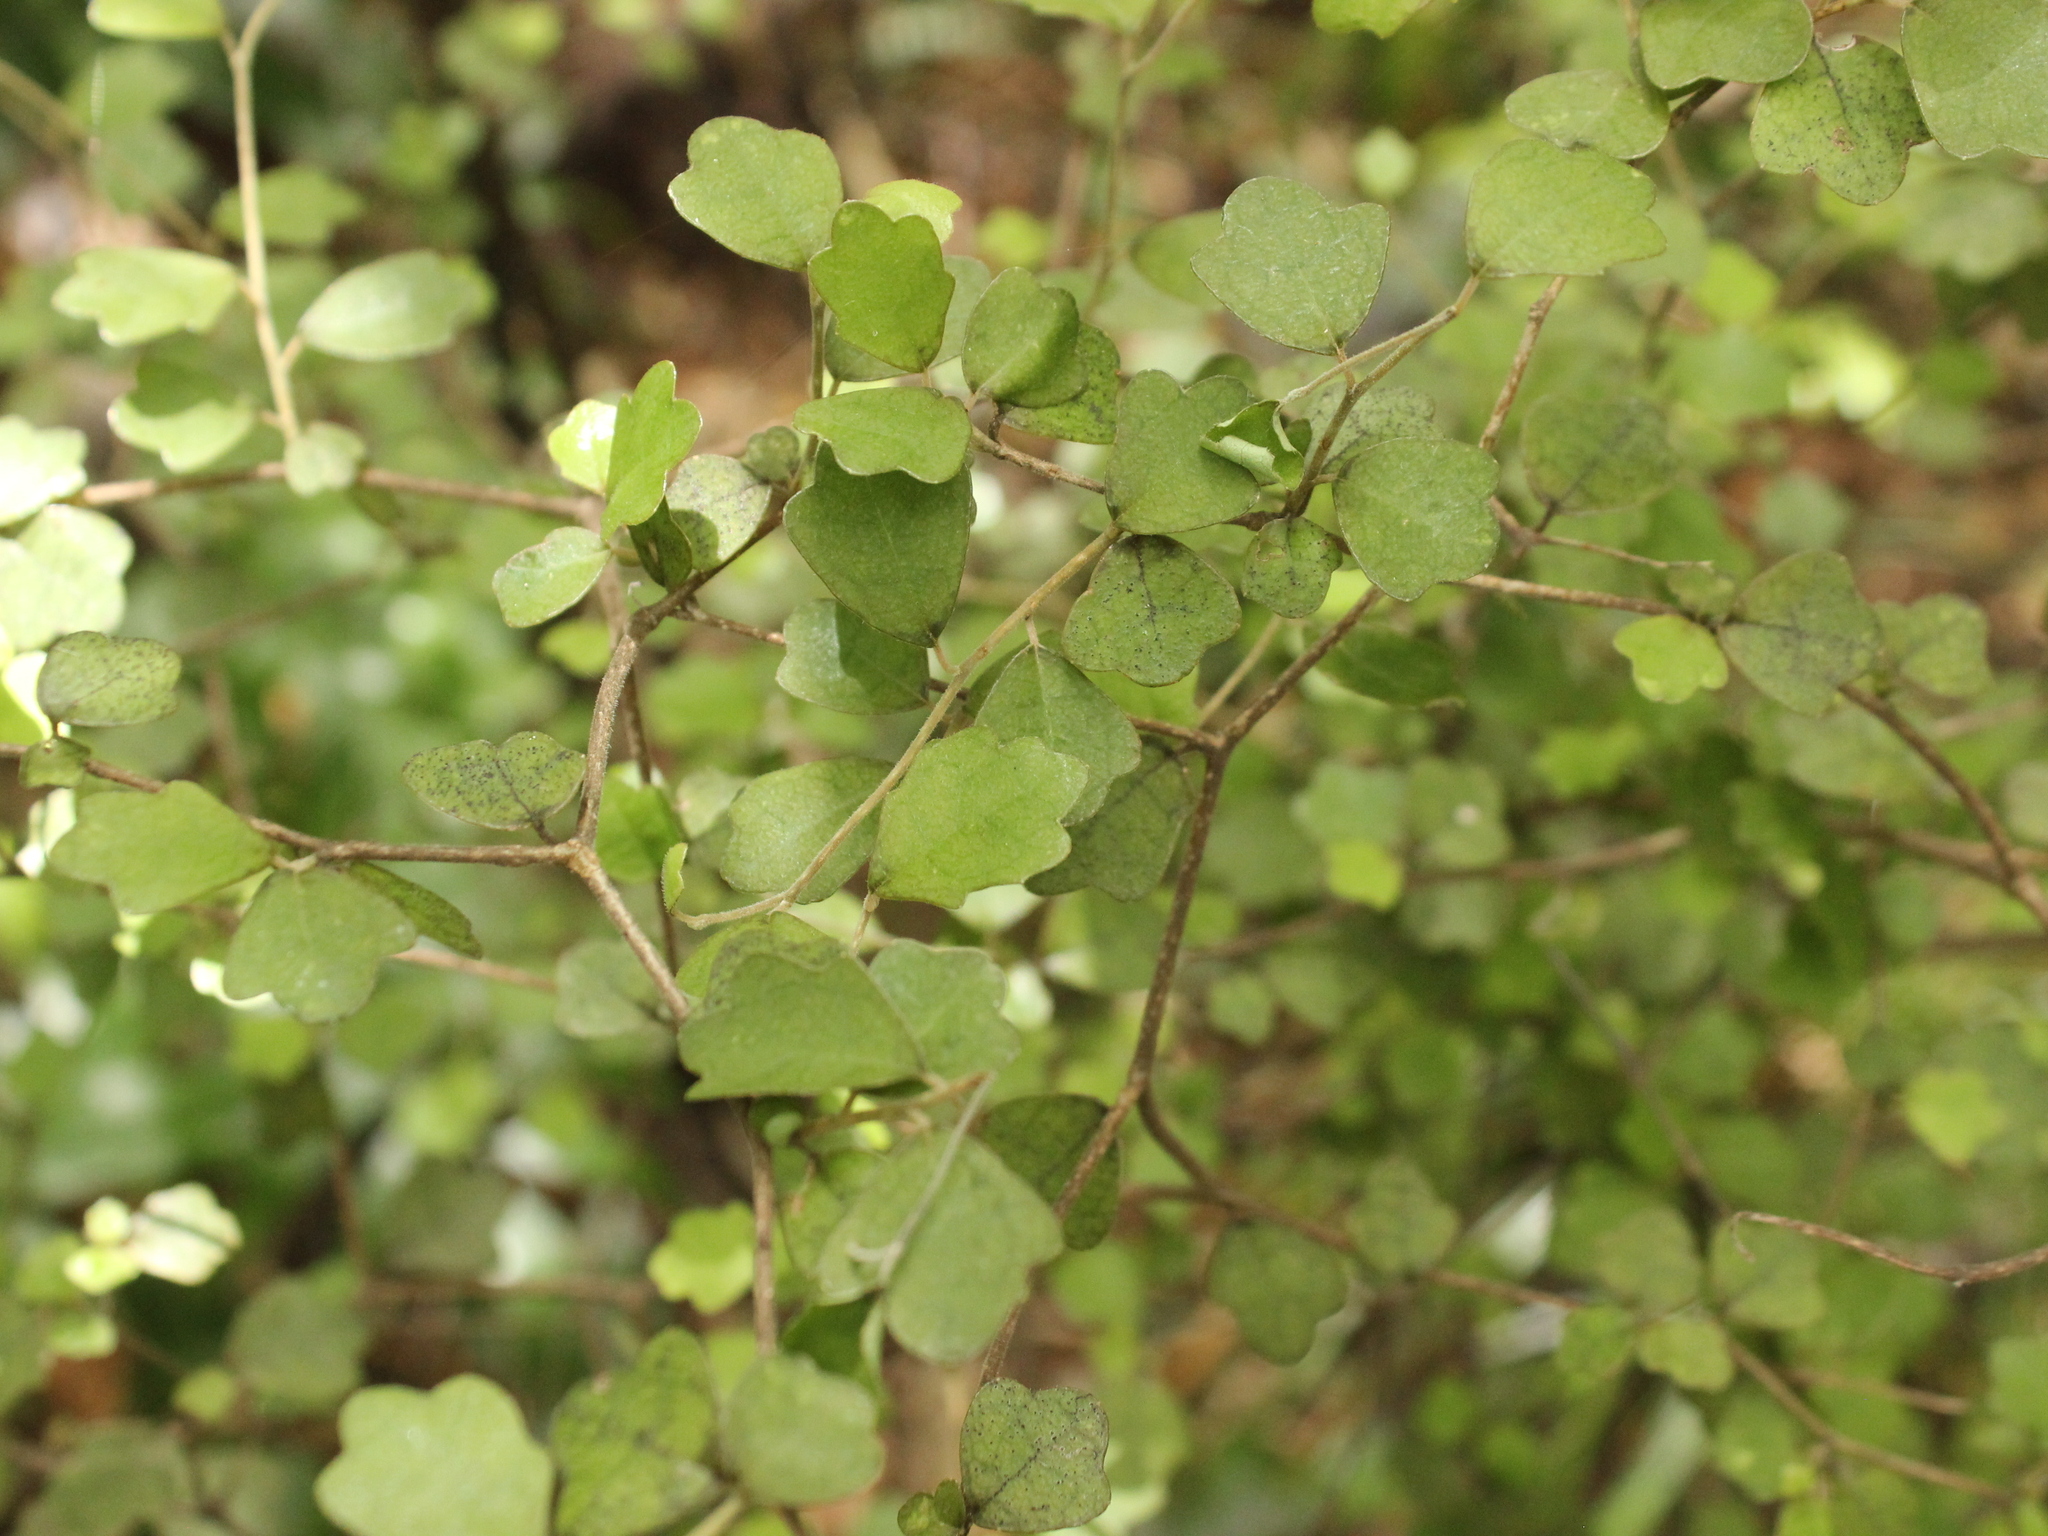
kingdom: Plantae
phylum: Tracheophyta
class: Magnoliopsida
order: Apiales
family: Pennantiaceae
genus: Pennantia
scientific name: Pennantia corymbosa
